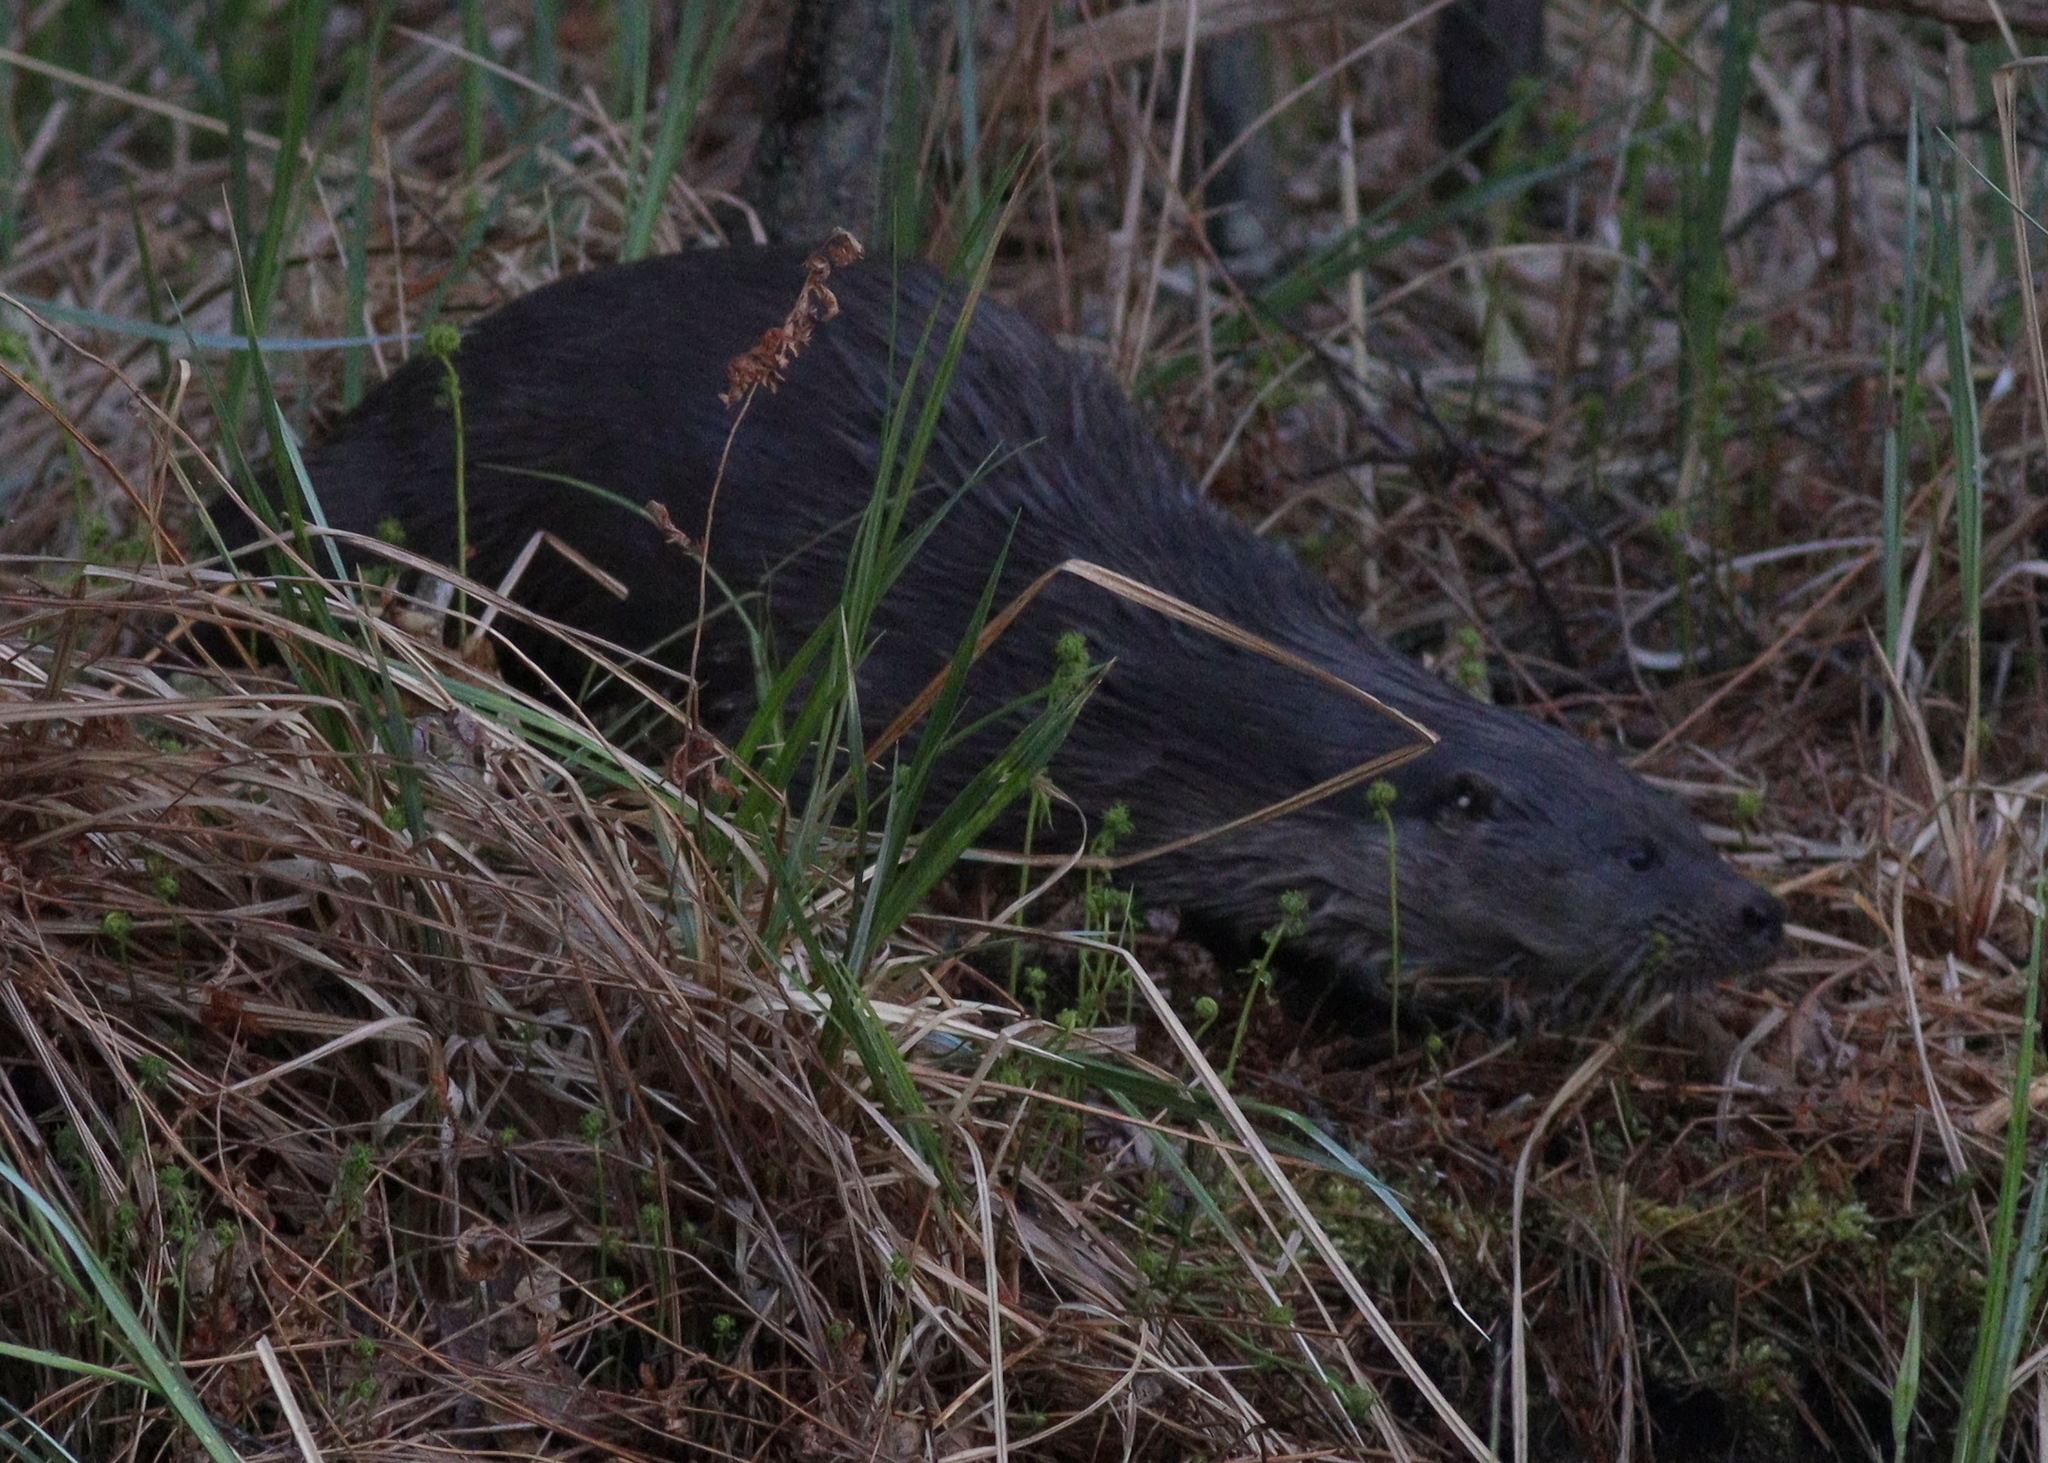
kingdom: Animalia
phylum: Chordata
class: Mammalia
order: Carnivora
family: Mustelidae
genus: Lutra
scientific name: Lutra lutra
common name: European otter
